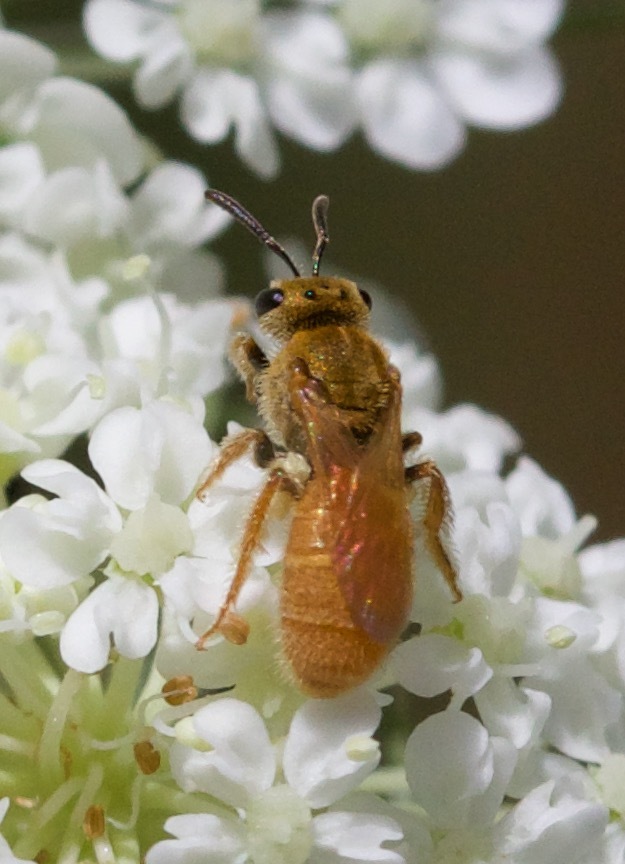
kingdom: Animalia
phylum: Arthropoda
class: Insecta
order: Hymenoptera
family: Halictidae
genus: Lasioglossum
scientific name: Lasioglossum vierecki
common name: Viereck's sweat bee
